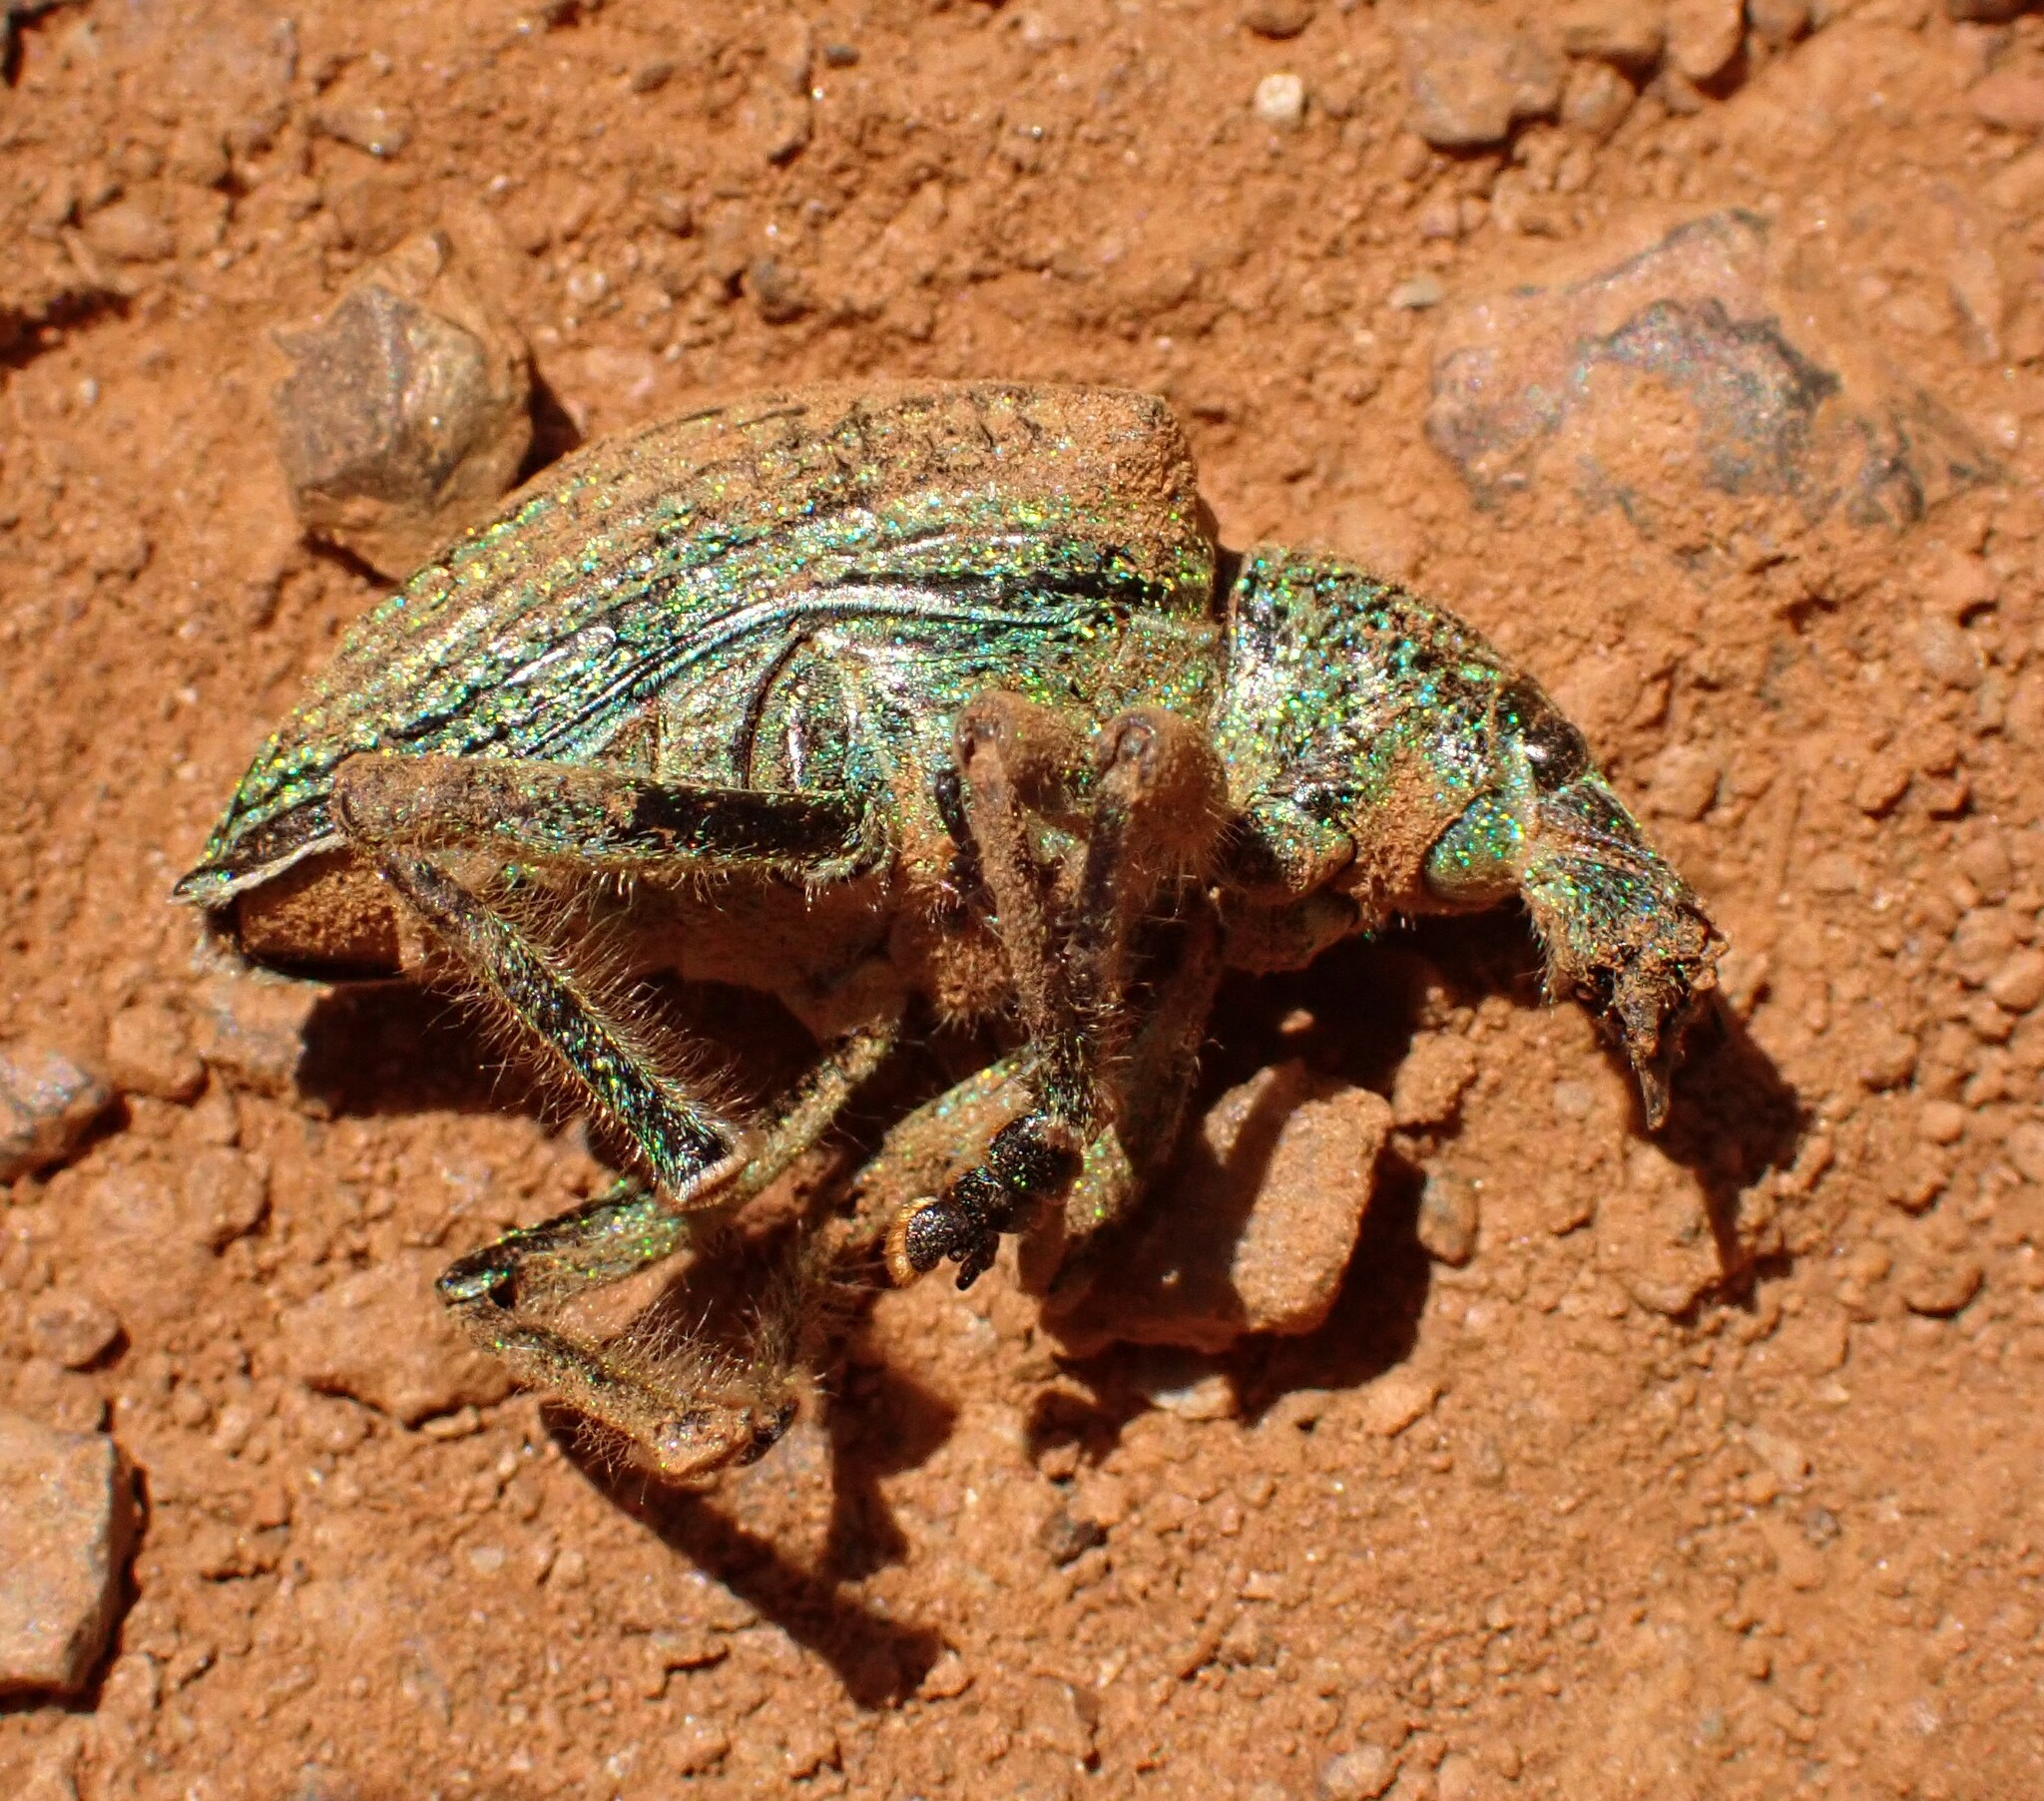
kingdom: Animalia
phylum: Arthropoda
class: Insecta
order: Coleoptera
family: Curculionidae
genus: Entimus
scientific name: Entimus imperialis
